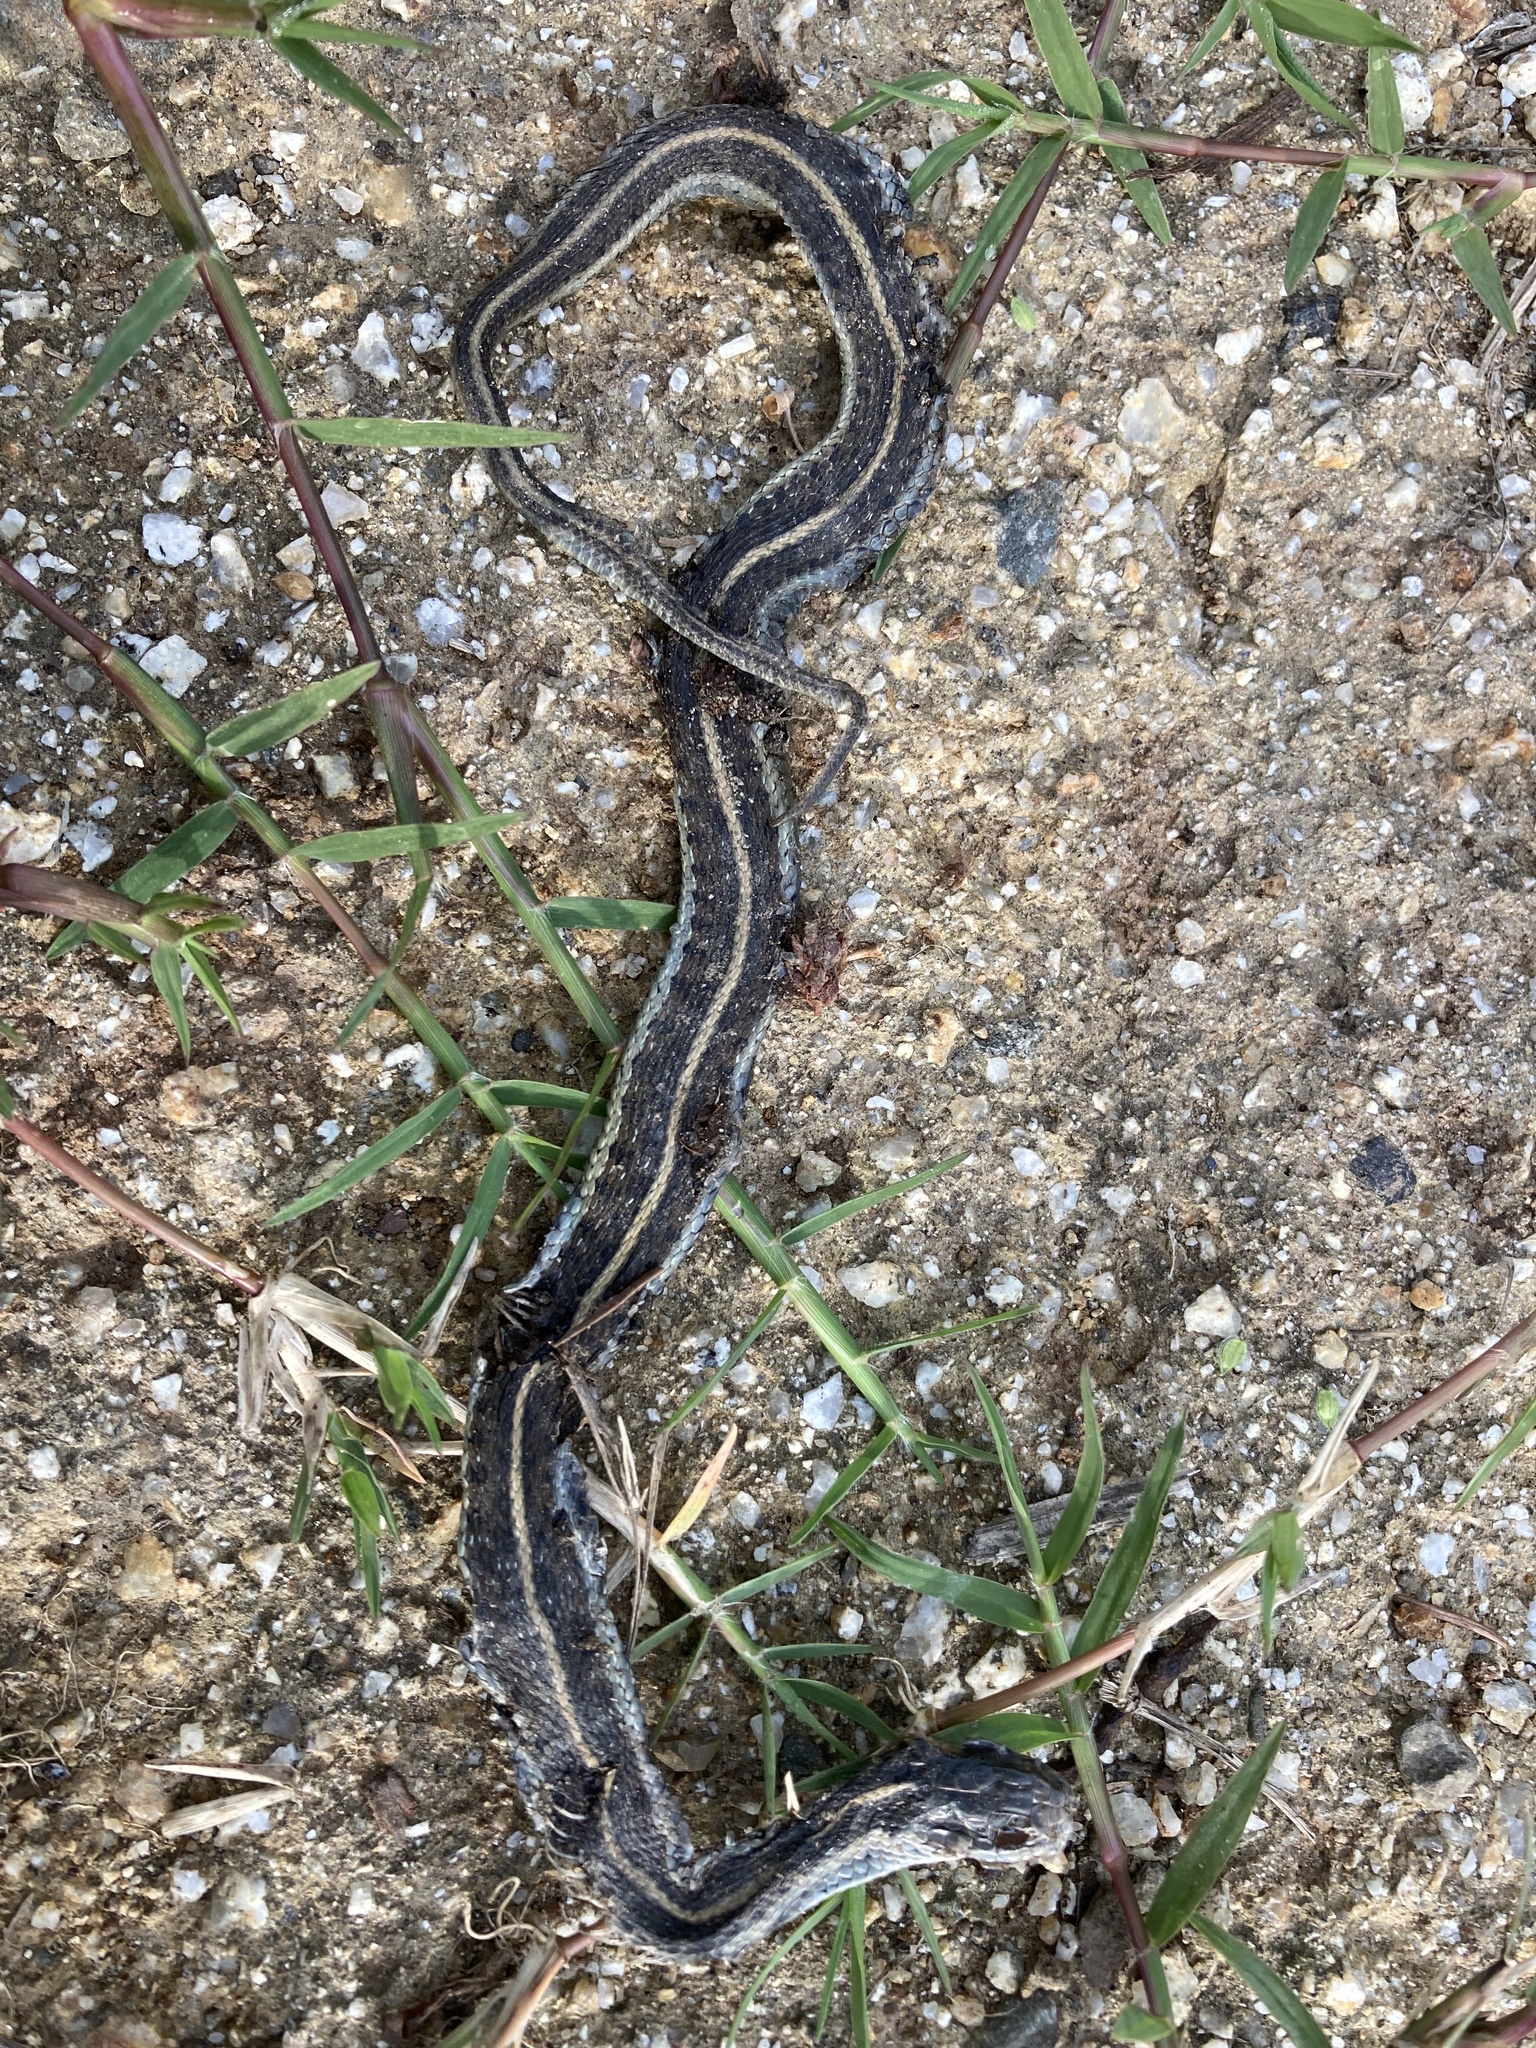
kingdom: Animalia
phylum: Chordata
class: Squamata
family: Colubridae
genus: Thamnophis
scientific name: Thamnophis elegans
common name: Western terrestrial garter snake
